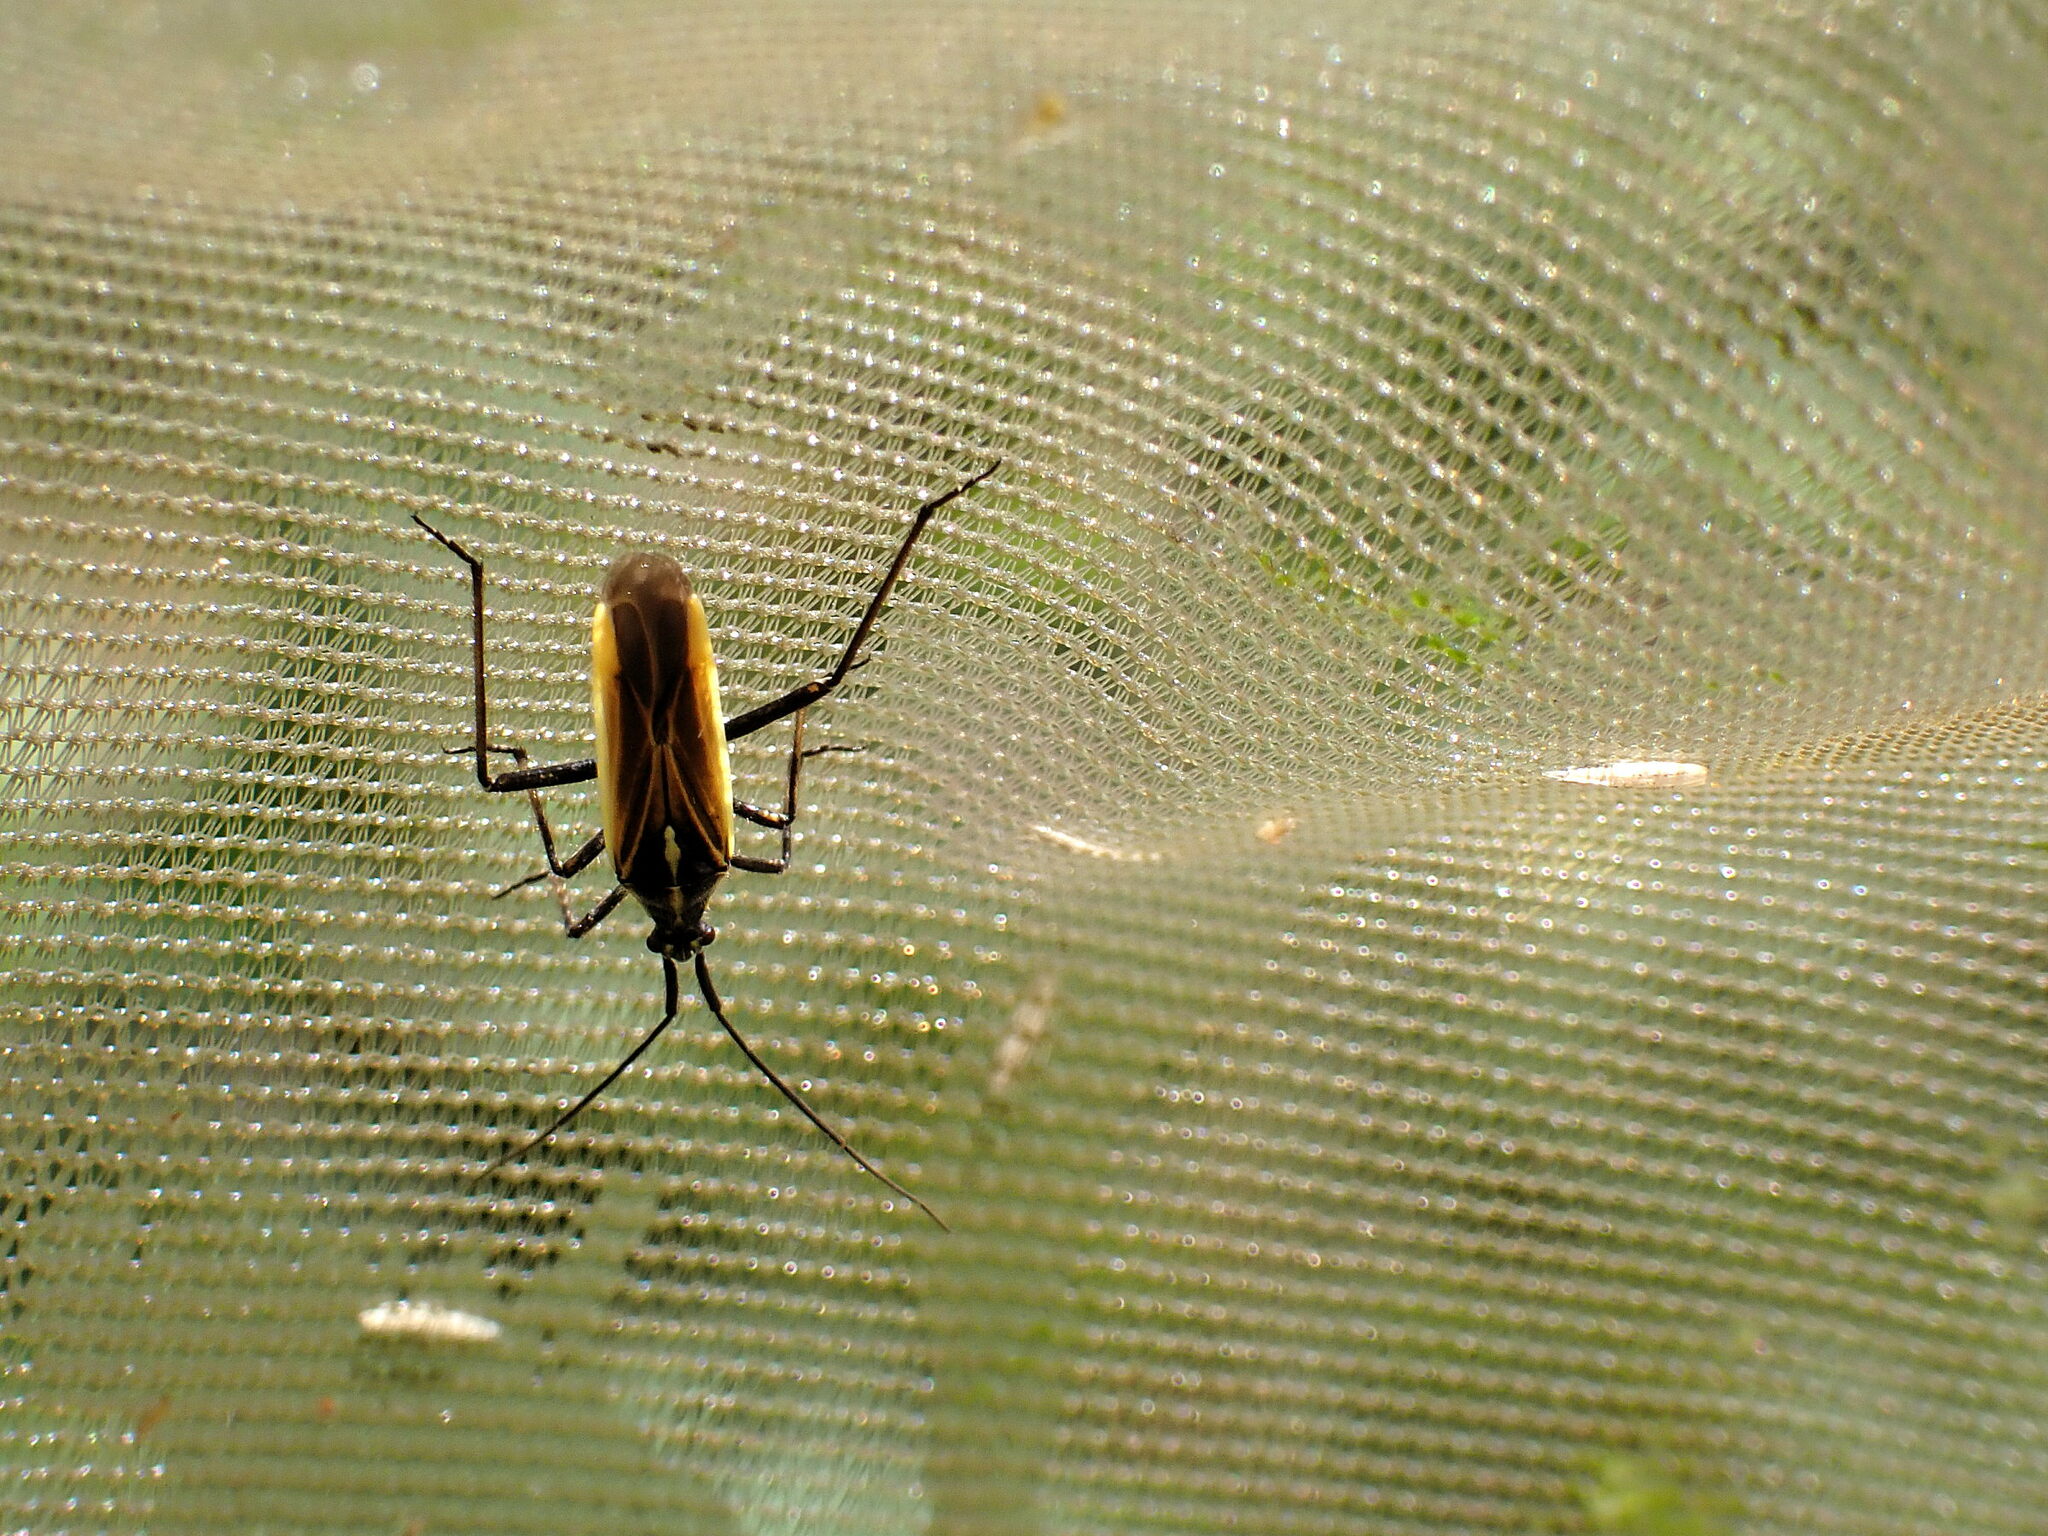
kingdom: Animalia
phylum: Arthropoda
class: Insecta
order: Hemiptera
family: Miridae
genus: Leptopterna
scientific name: Leptopterna dolabrata
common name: Meadow plant bug
